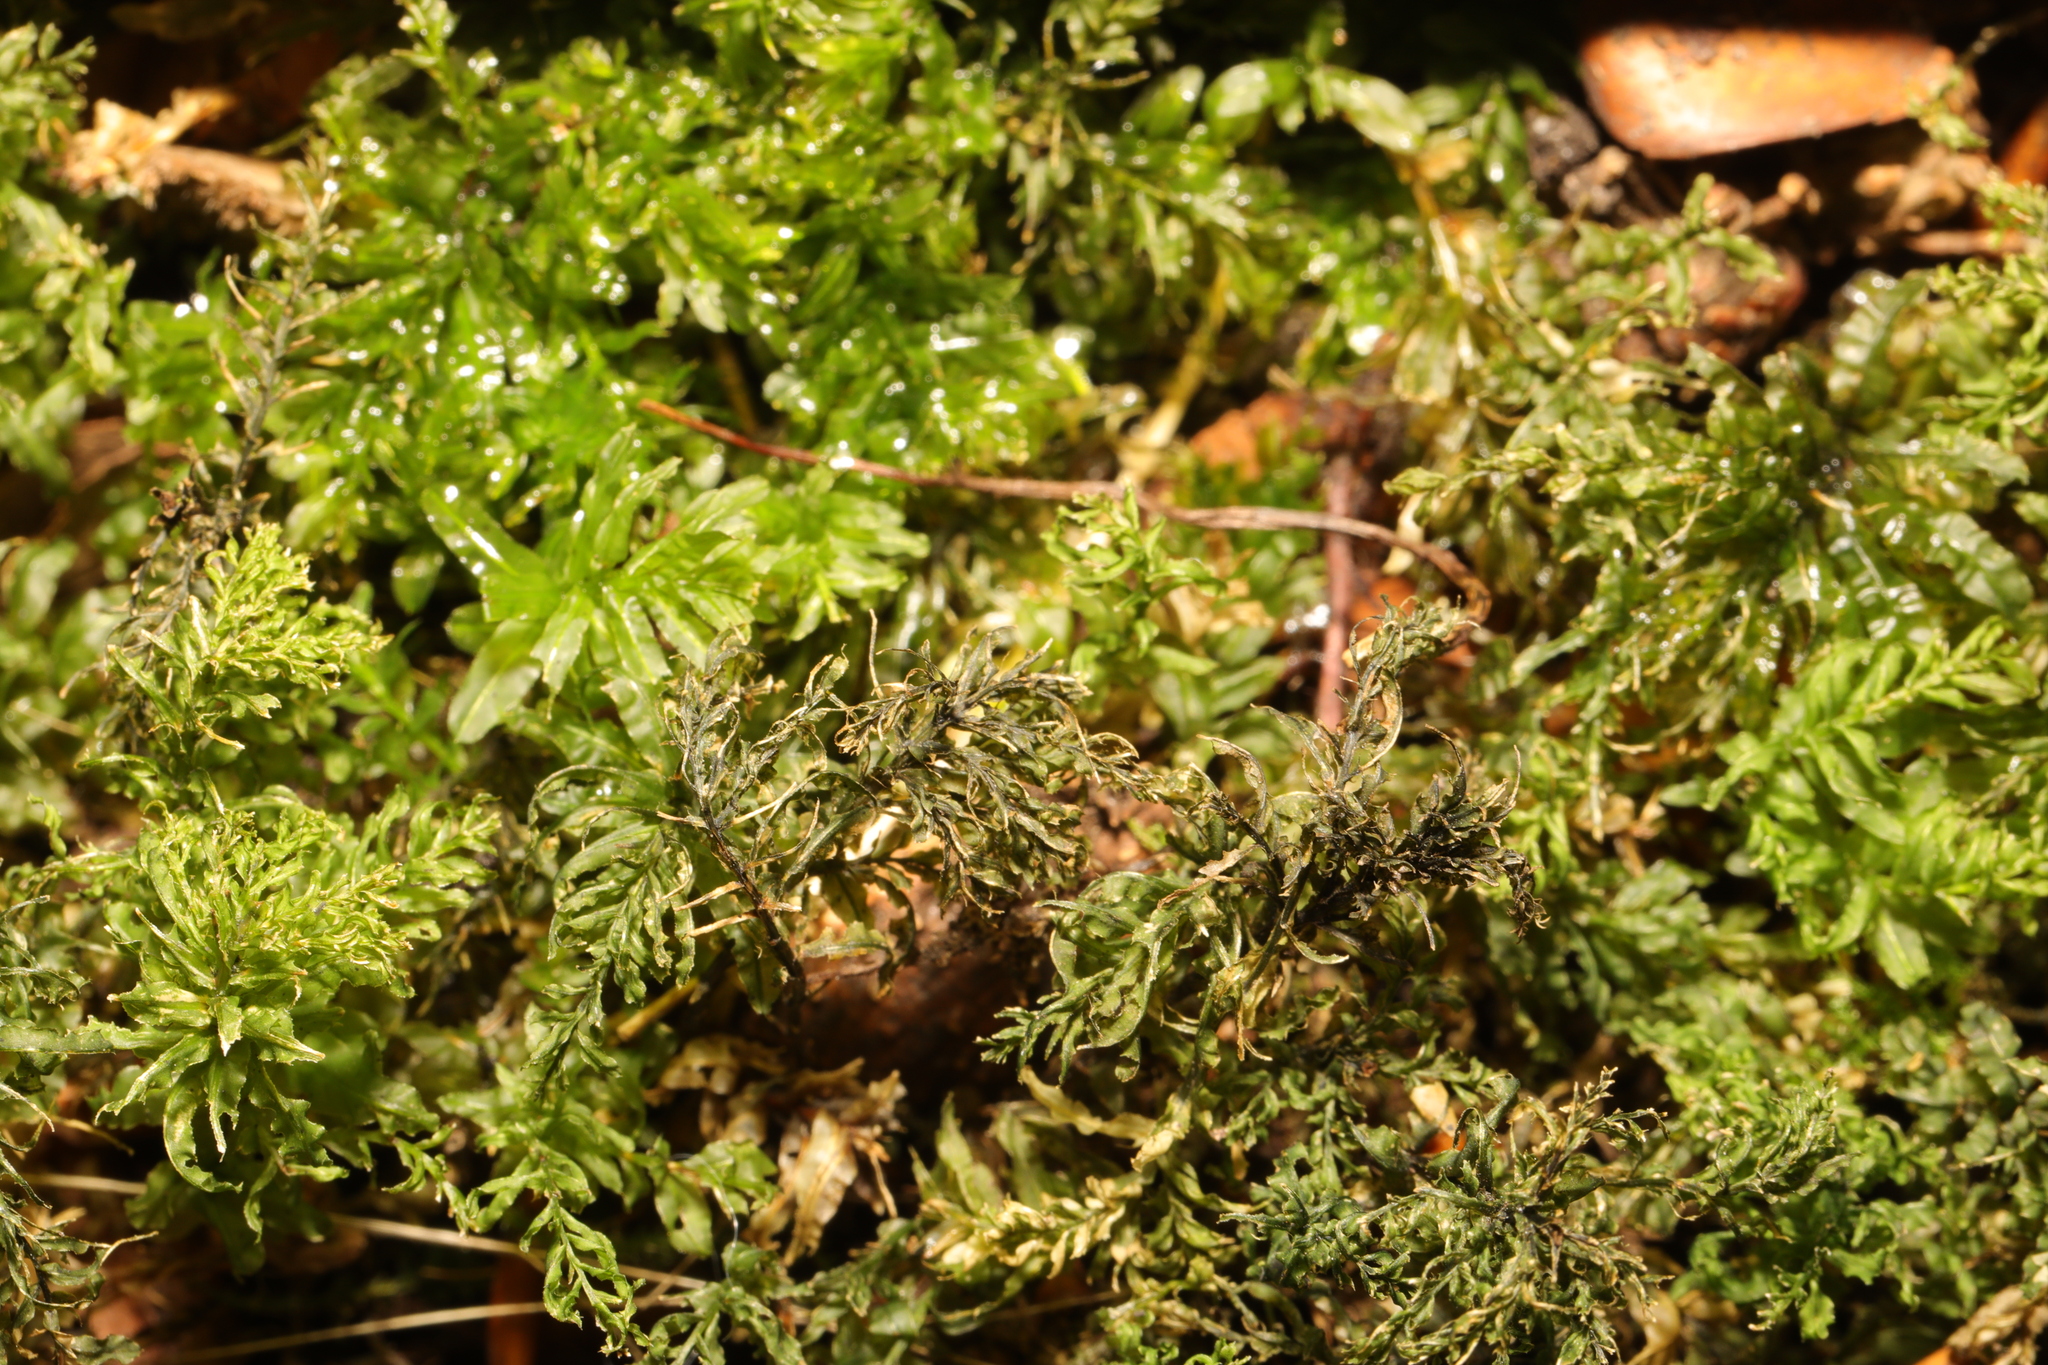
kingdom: Plantae
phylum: Bryophyta
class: Bryopsida
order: Bryales
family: Mniaceae
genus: Plagiomnium
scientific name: Plagiomnium undulatum
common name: Hart's-tongue thyme-moss
